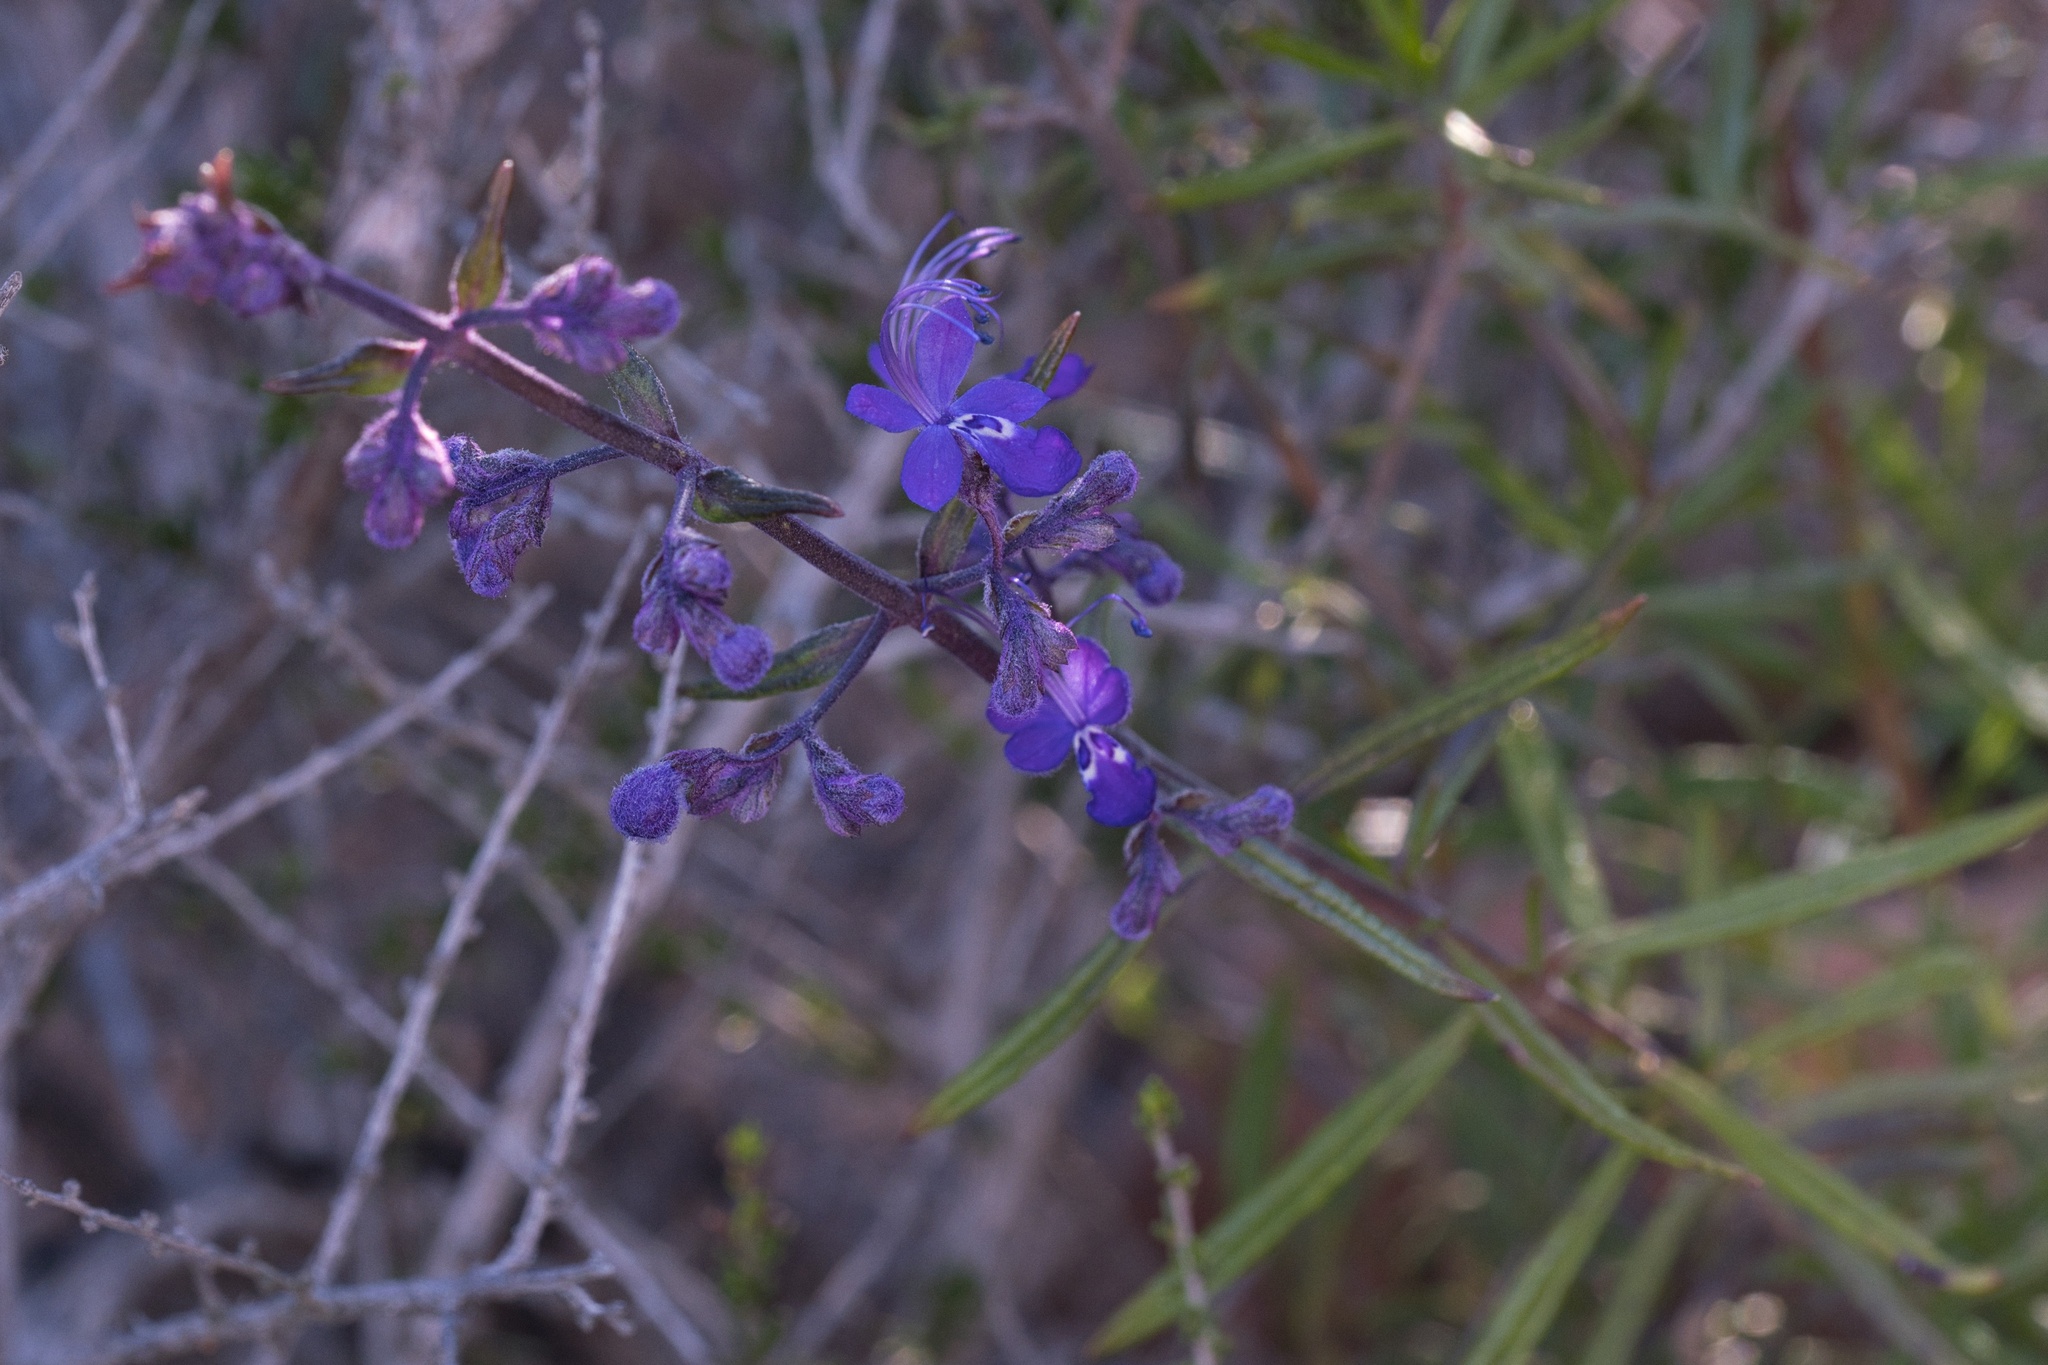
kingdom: Plantae
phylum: Tracheophyta
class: Magnoliopsida
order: Lamiales
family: Lamiaceae
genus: Trichostema
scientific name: Trichostema parishii
